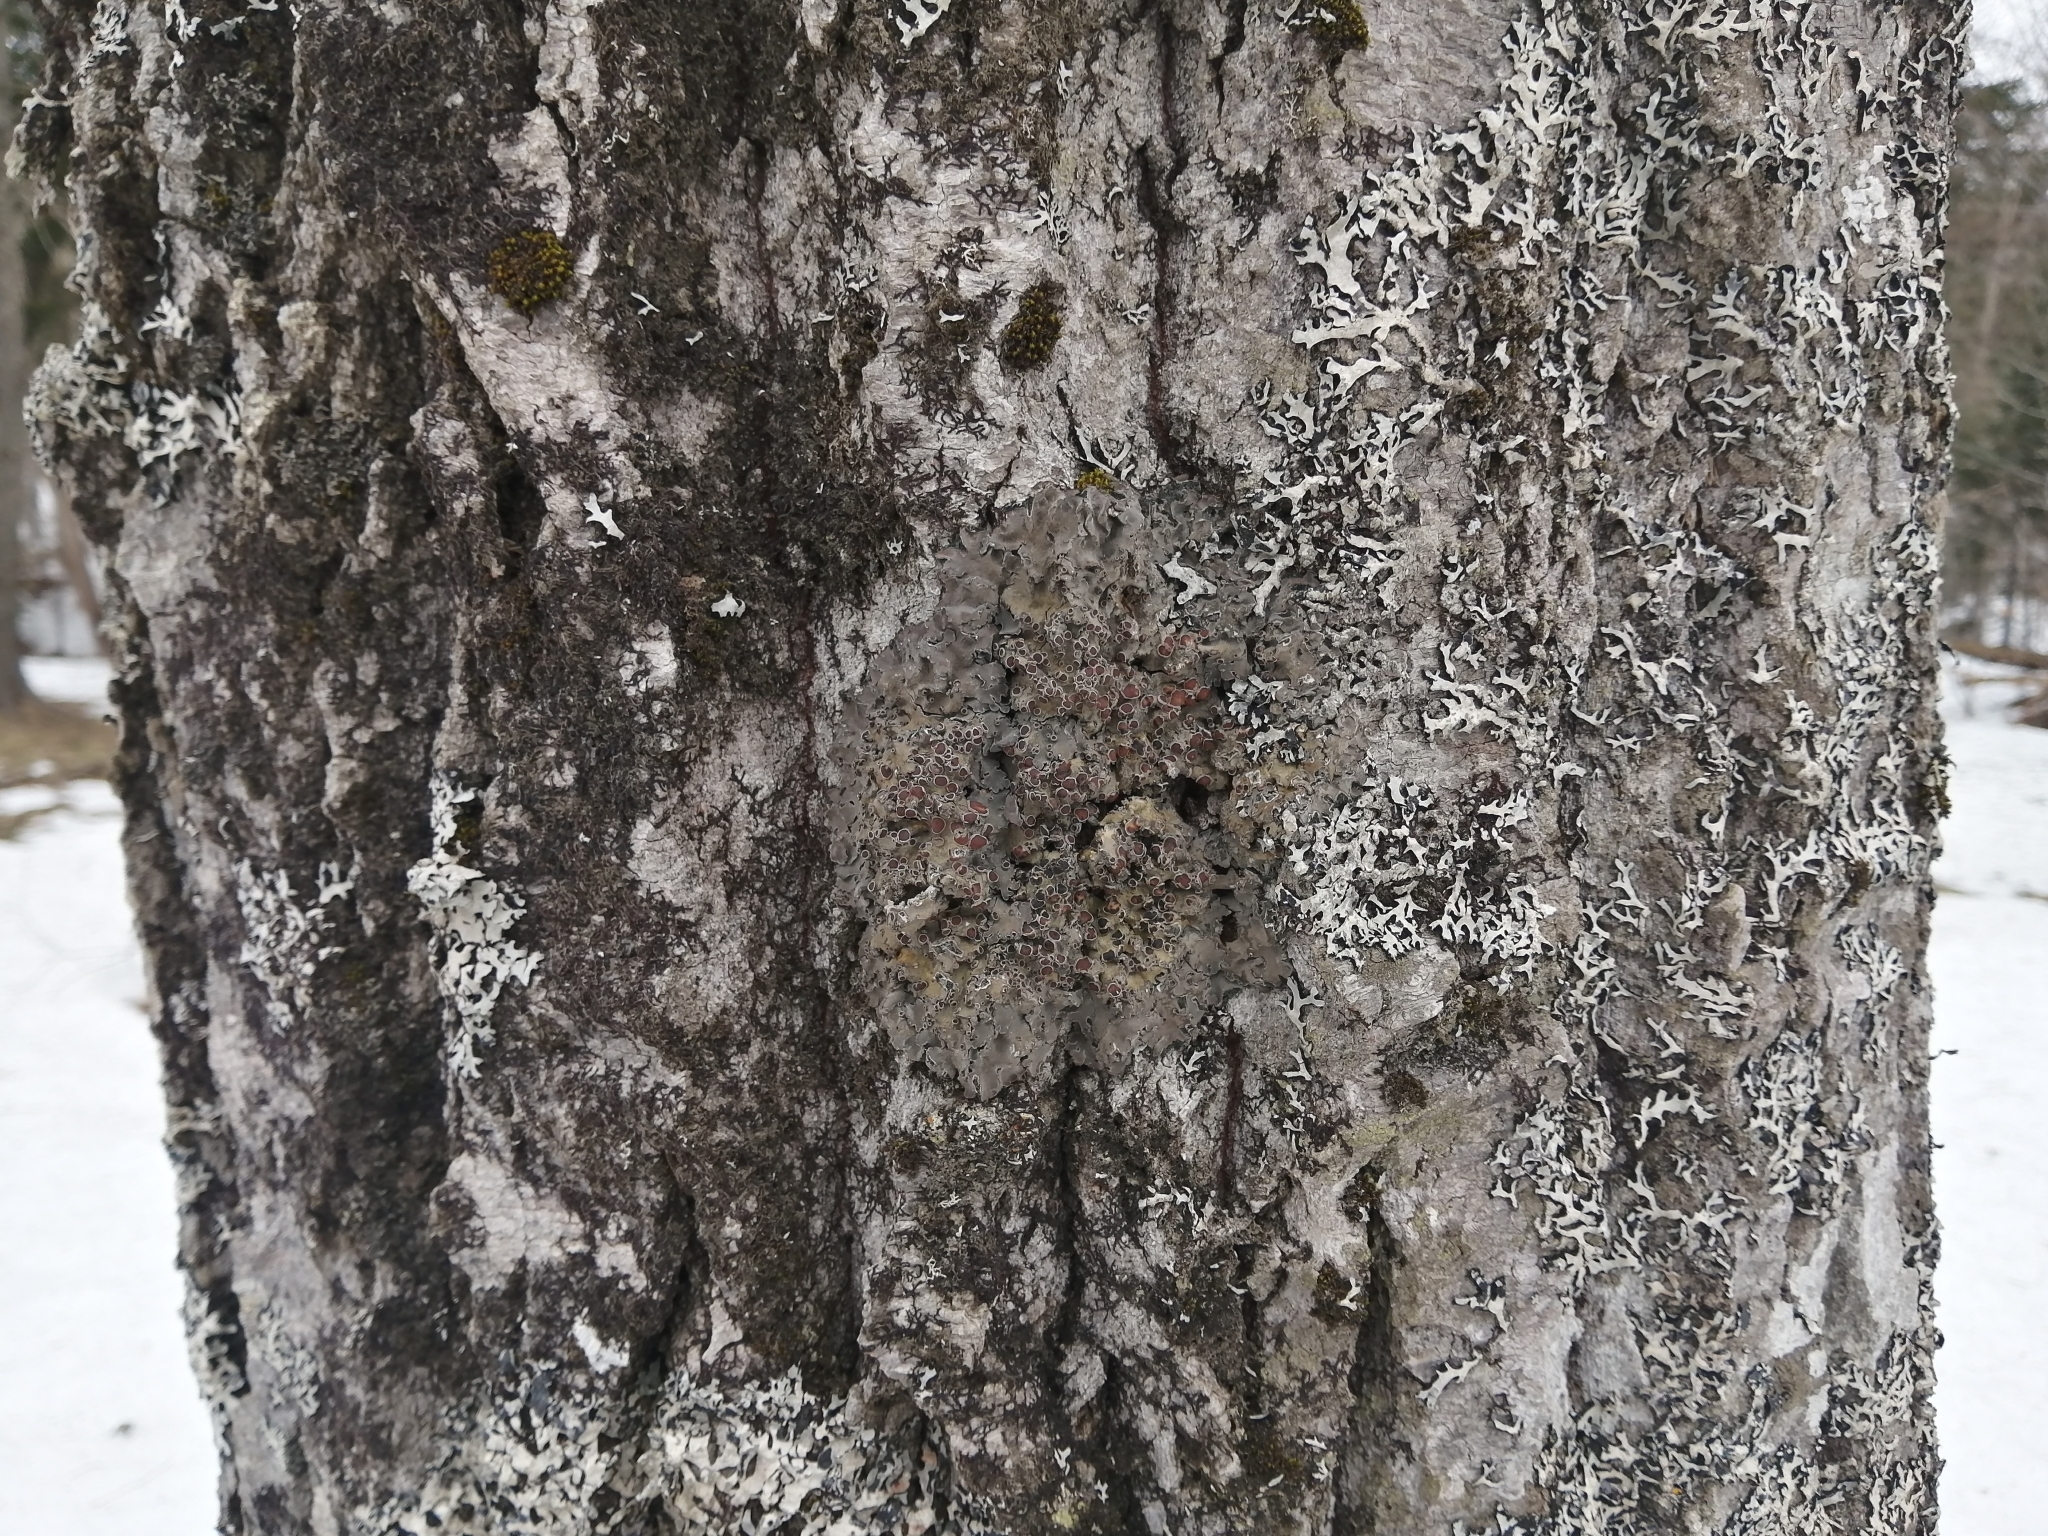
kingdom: Fungi
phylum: Ascomycota
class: Lecanoromycetes
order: Peltigerales
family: Pannariaceae
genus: Pannaria
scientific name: Pannaria lurida
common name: Wrinkled shingle lichen
